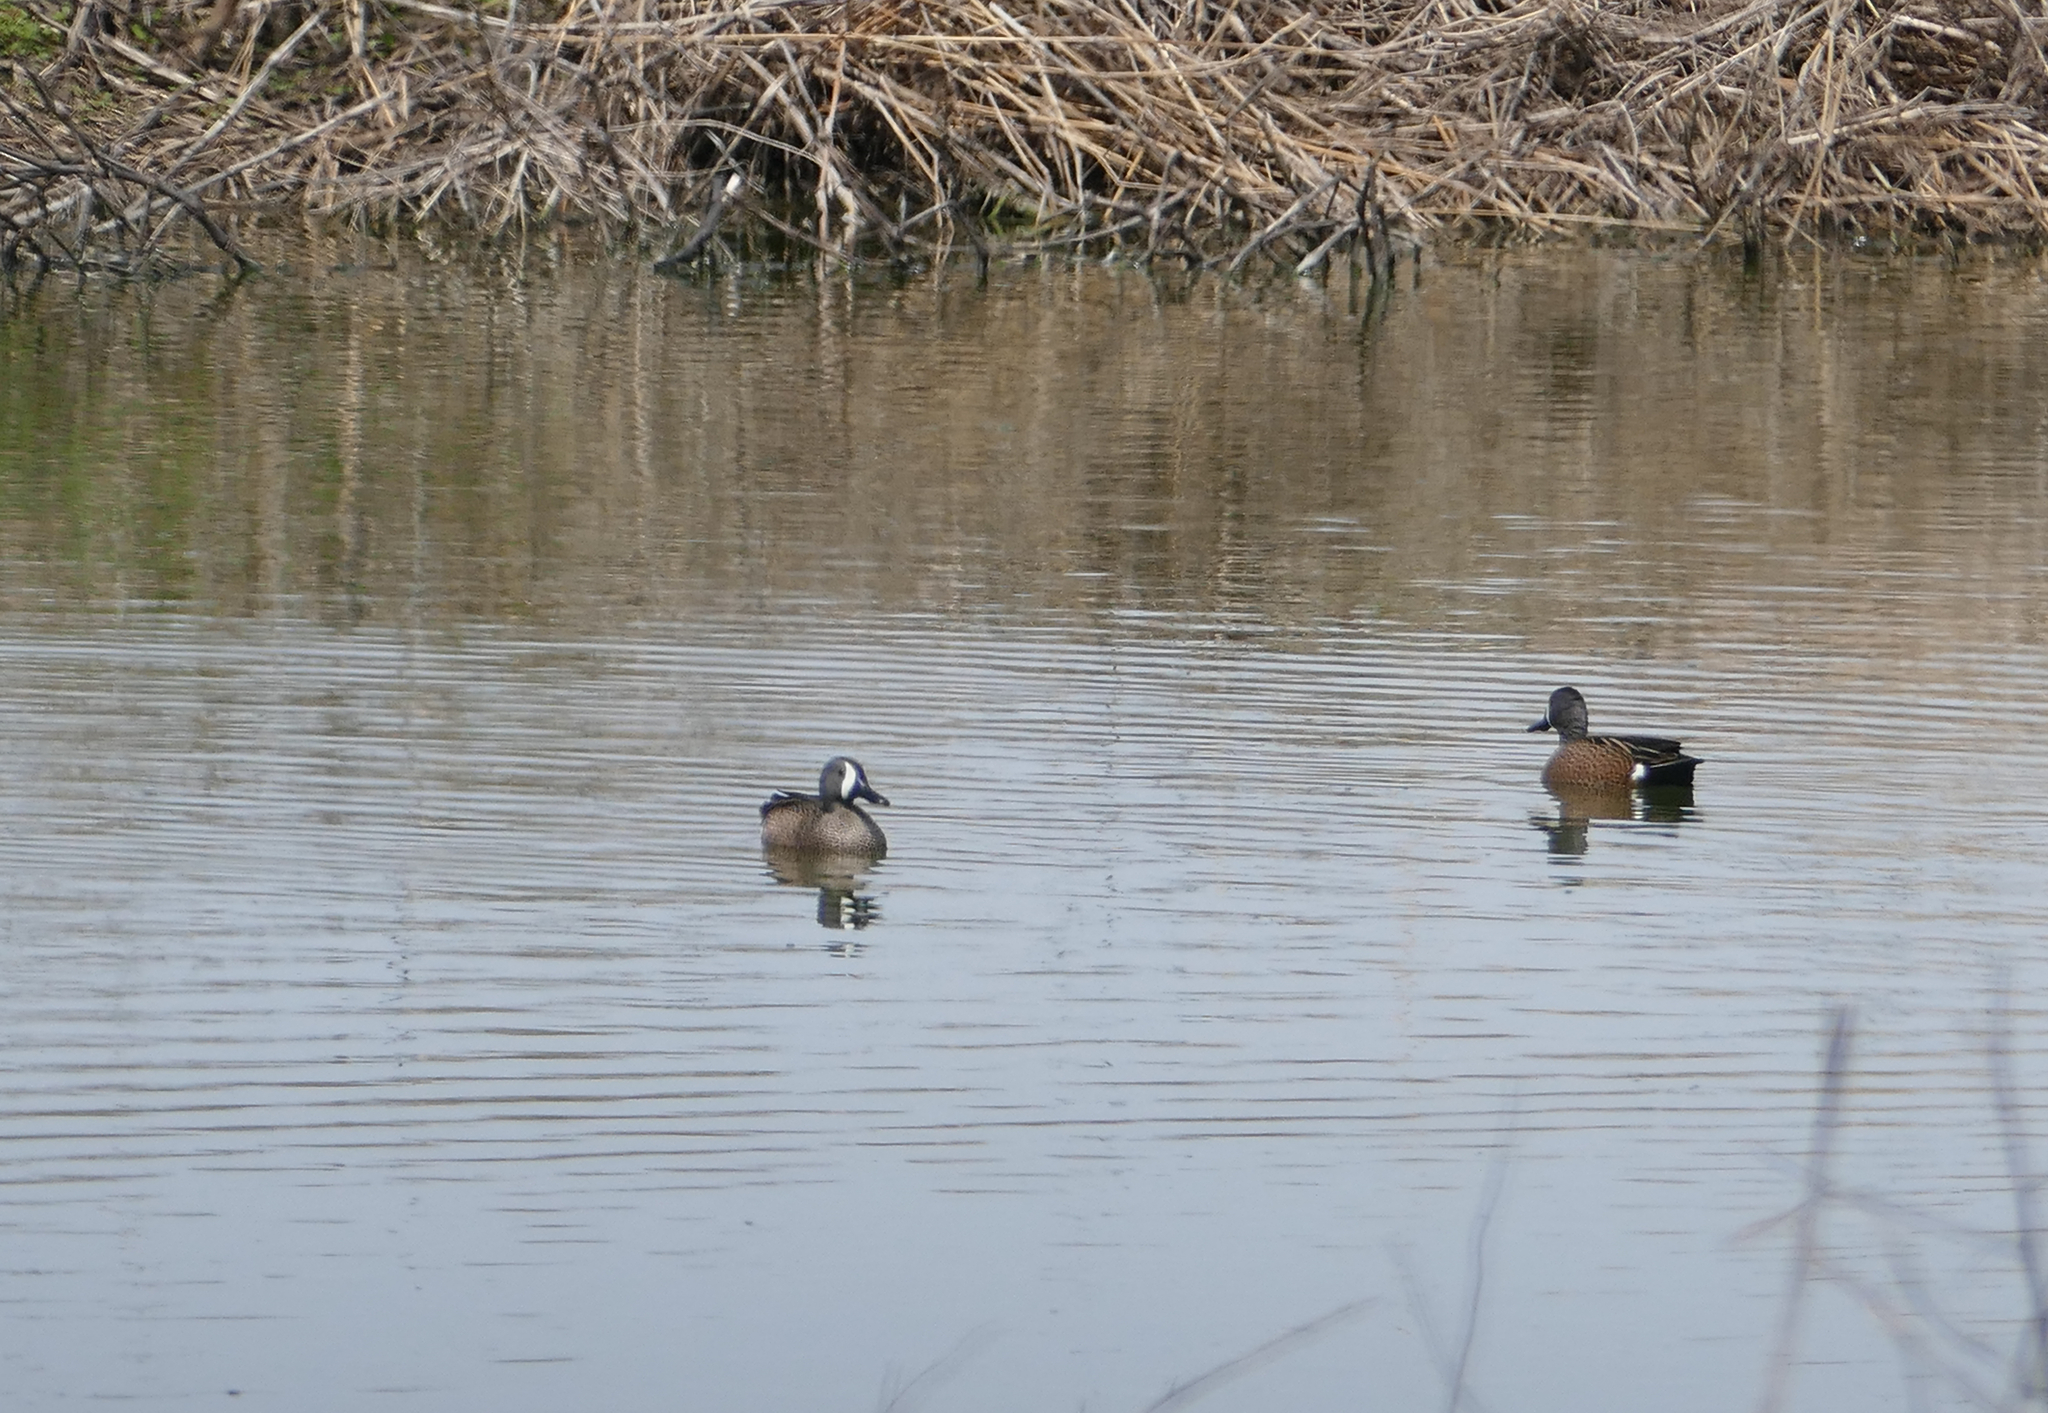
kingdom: Animalia
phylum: Chordata
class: Aves
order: Anseriformes
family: Anatidae
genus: Spatula
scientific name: Spatula discors
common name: Blue-winged teal
